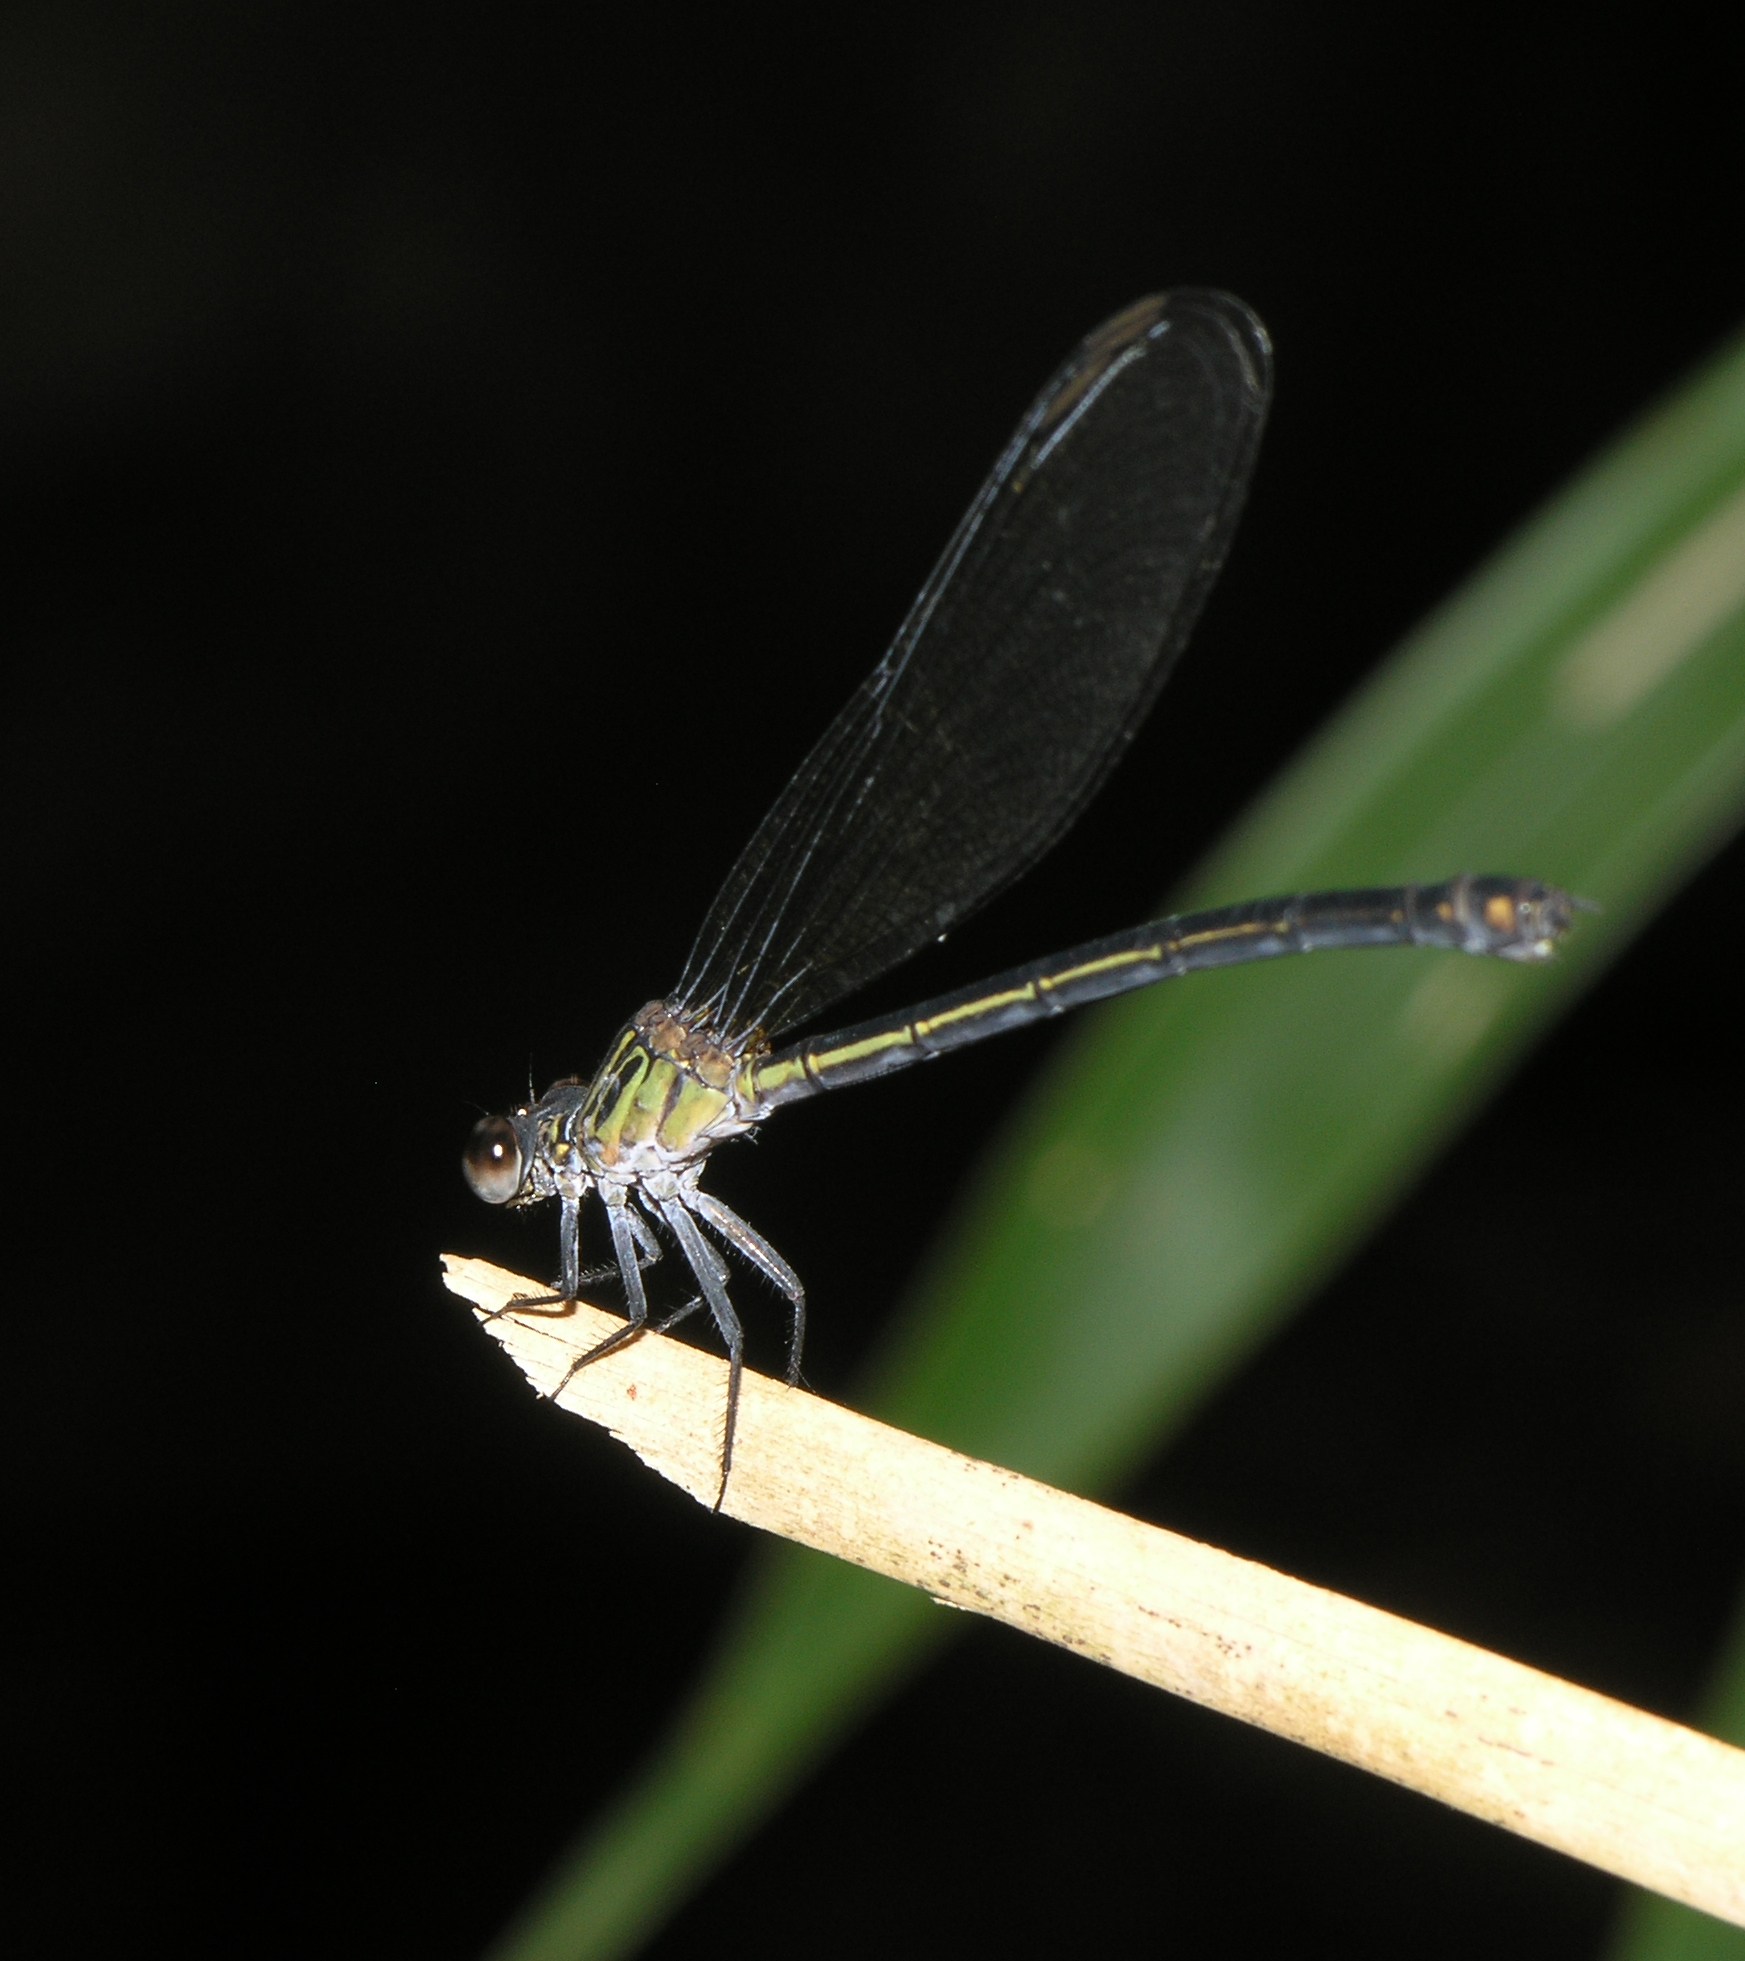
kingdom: Animalia
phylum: Arthropoda
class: Insecta
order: Odonata
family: Euphaeidae
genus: Euphaea
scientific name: Euphaea masoni
